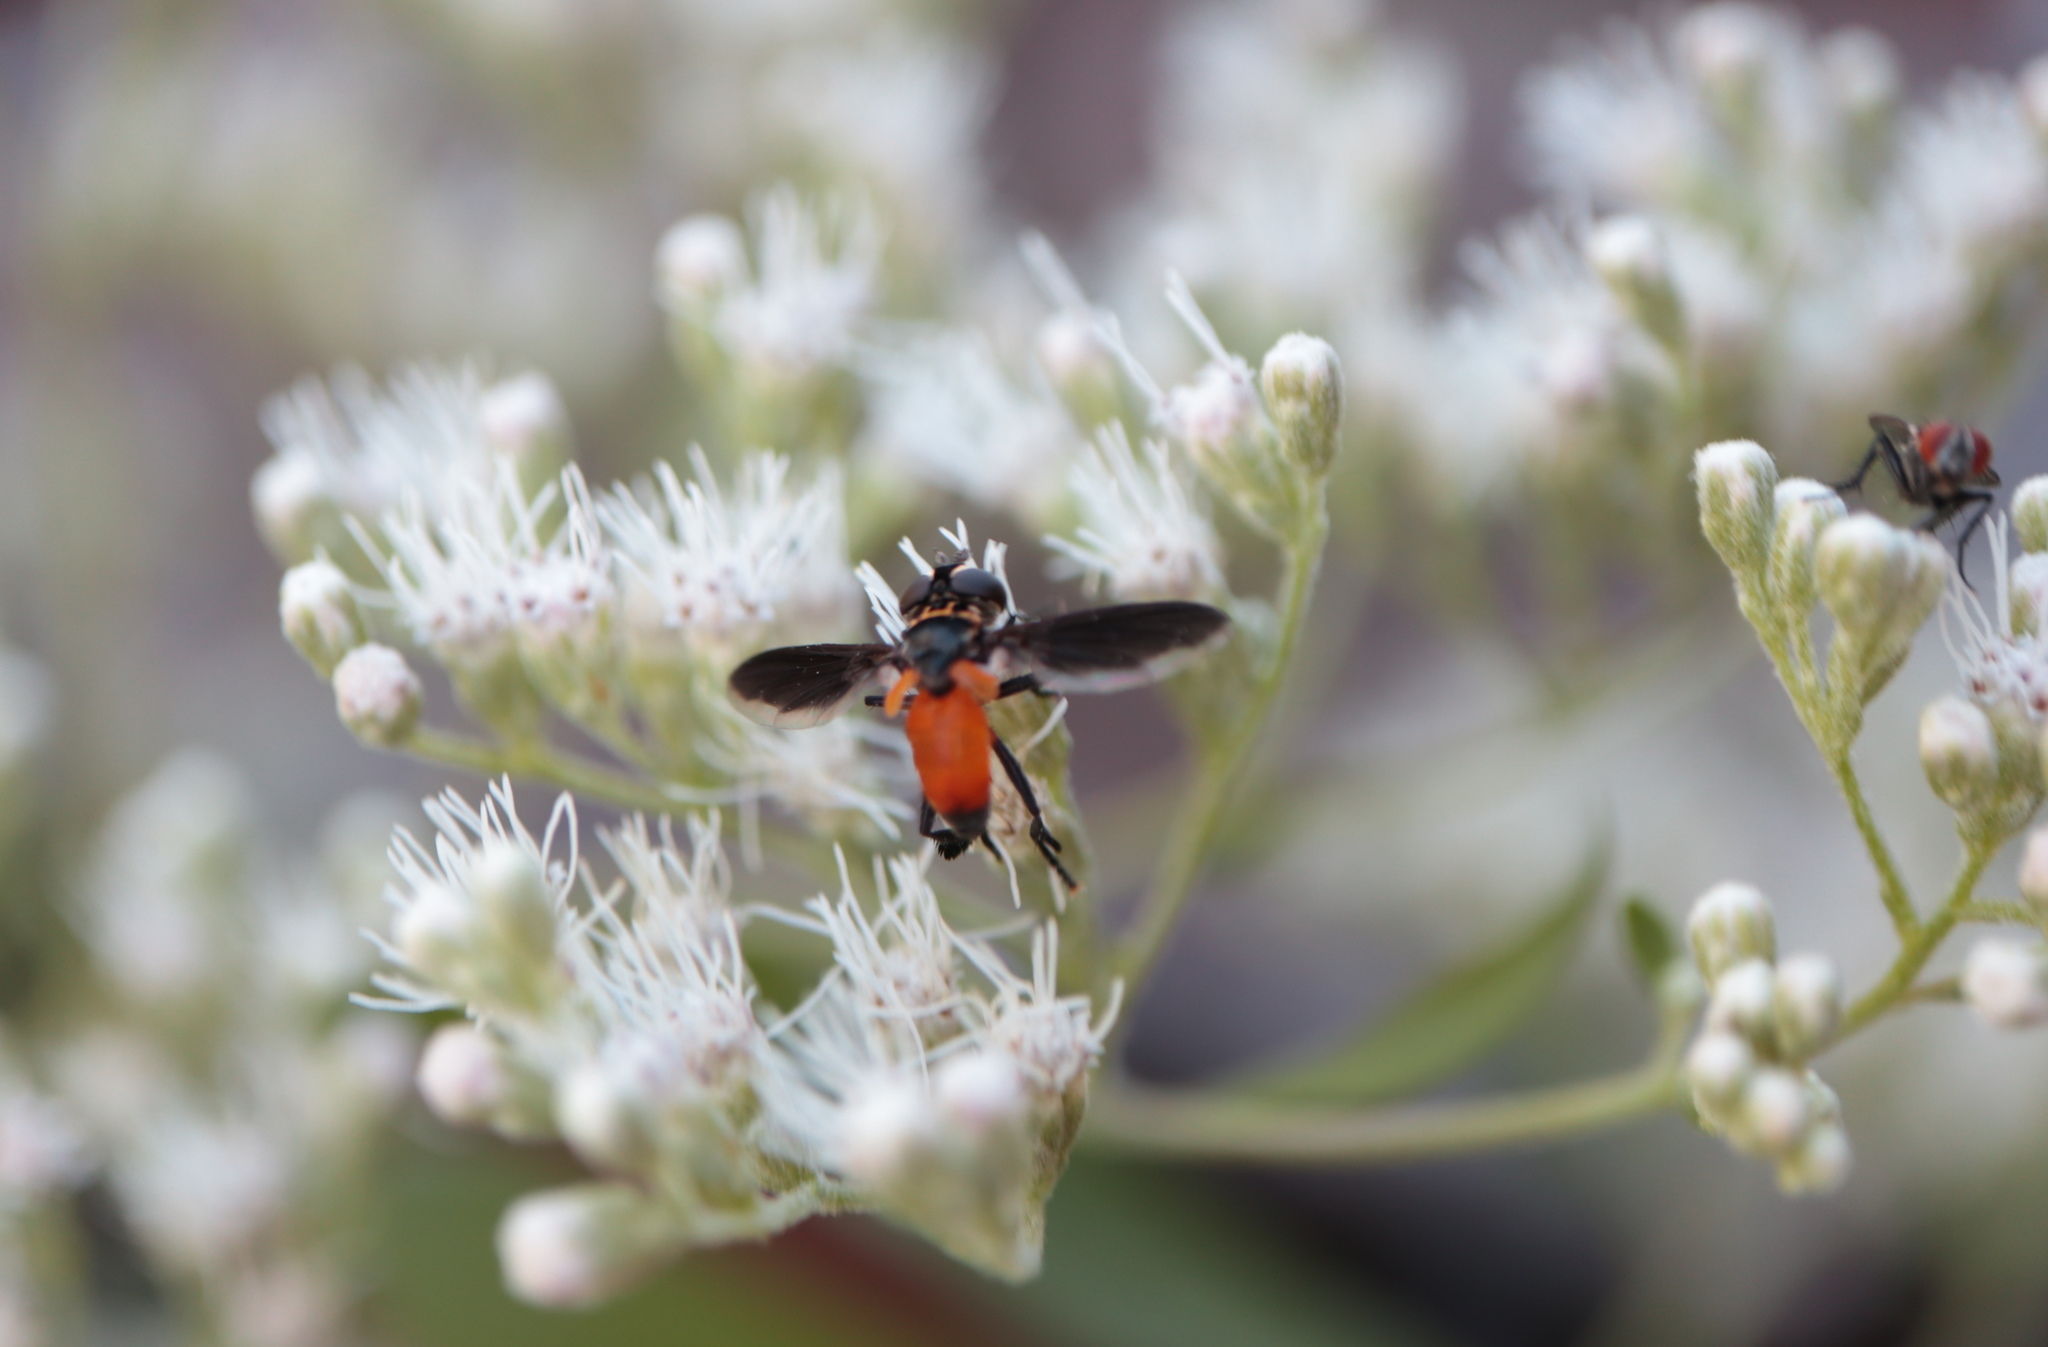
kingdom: Animalia
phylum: Arthropoda
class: Insecta
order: Diptera
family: Tachinidae
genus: Trichopoda
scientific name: Trichopoda pennipes
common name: Tachinid fly
